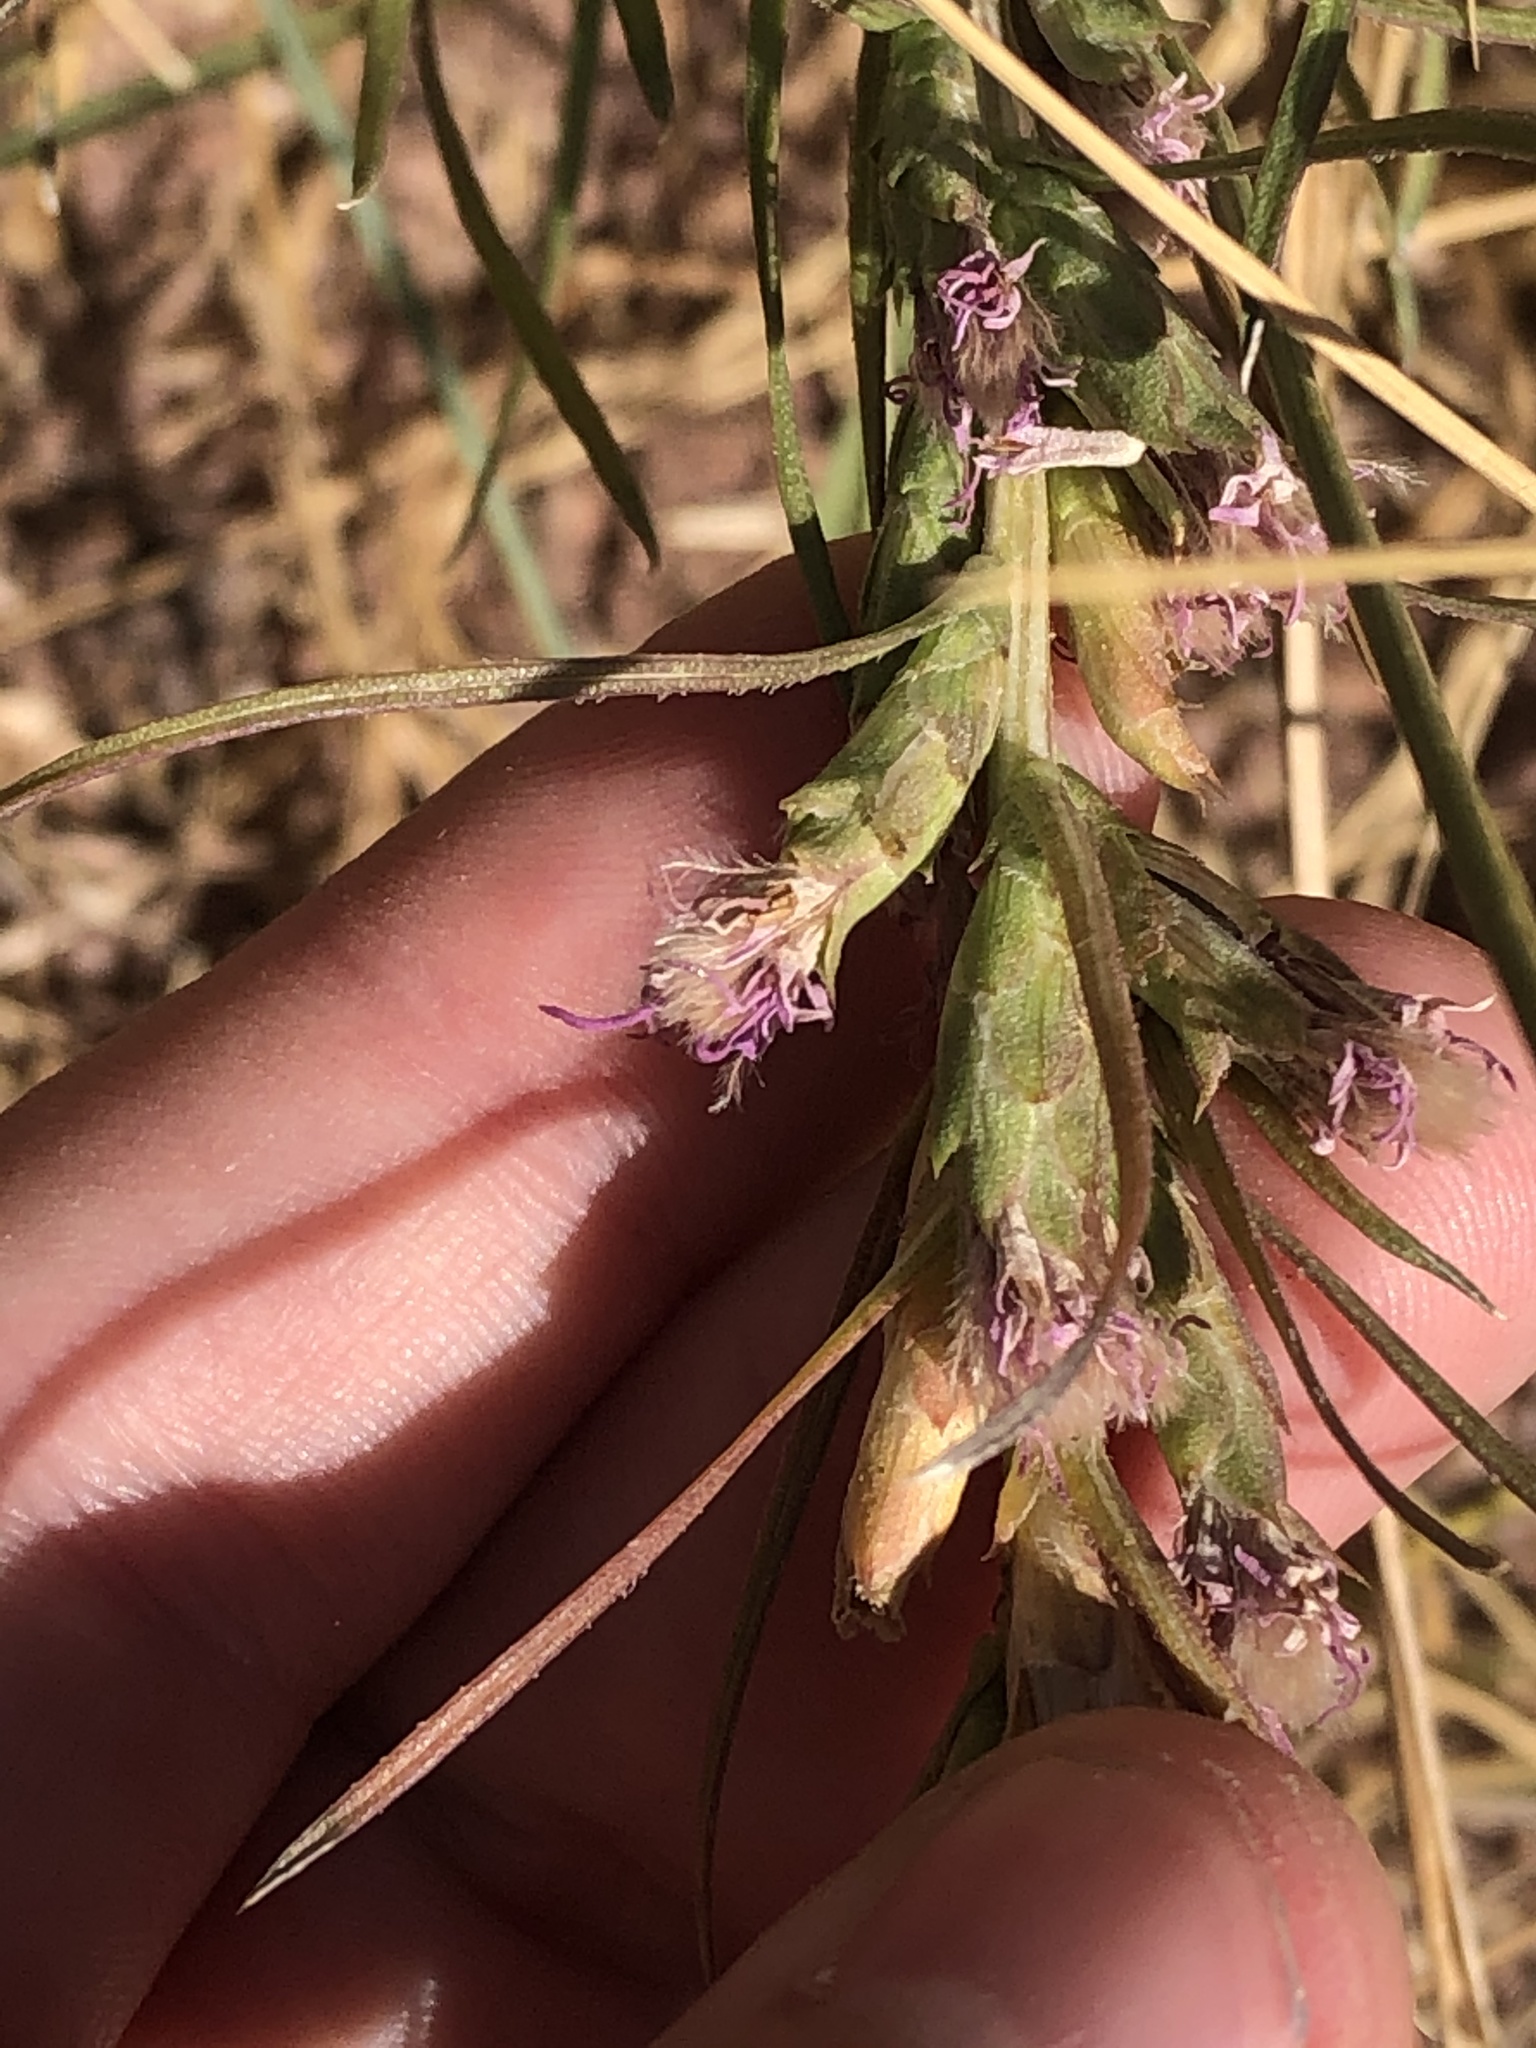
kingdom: Plantae
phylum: Tracheophyta
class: Magnoliopsida
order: Asterales
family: Asteraceae
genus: Liatris
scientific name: Liatris punctata
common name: Dotted gayfeather
